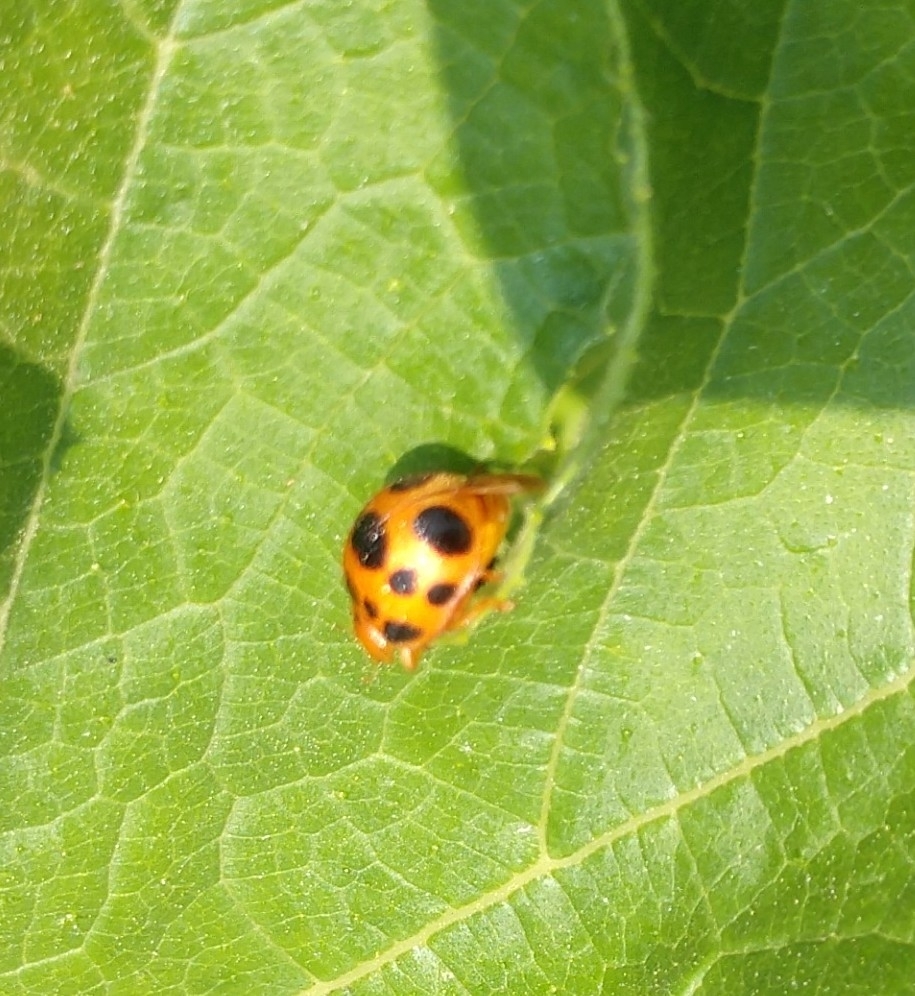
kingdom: Animalia
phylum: Arthropoda
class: Insecta
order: Coleoptera
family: Coccinellidae
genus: Epilachna
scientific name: Epilachna borealis
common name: Squash beetle
